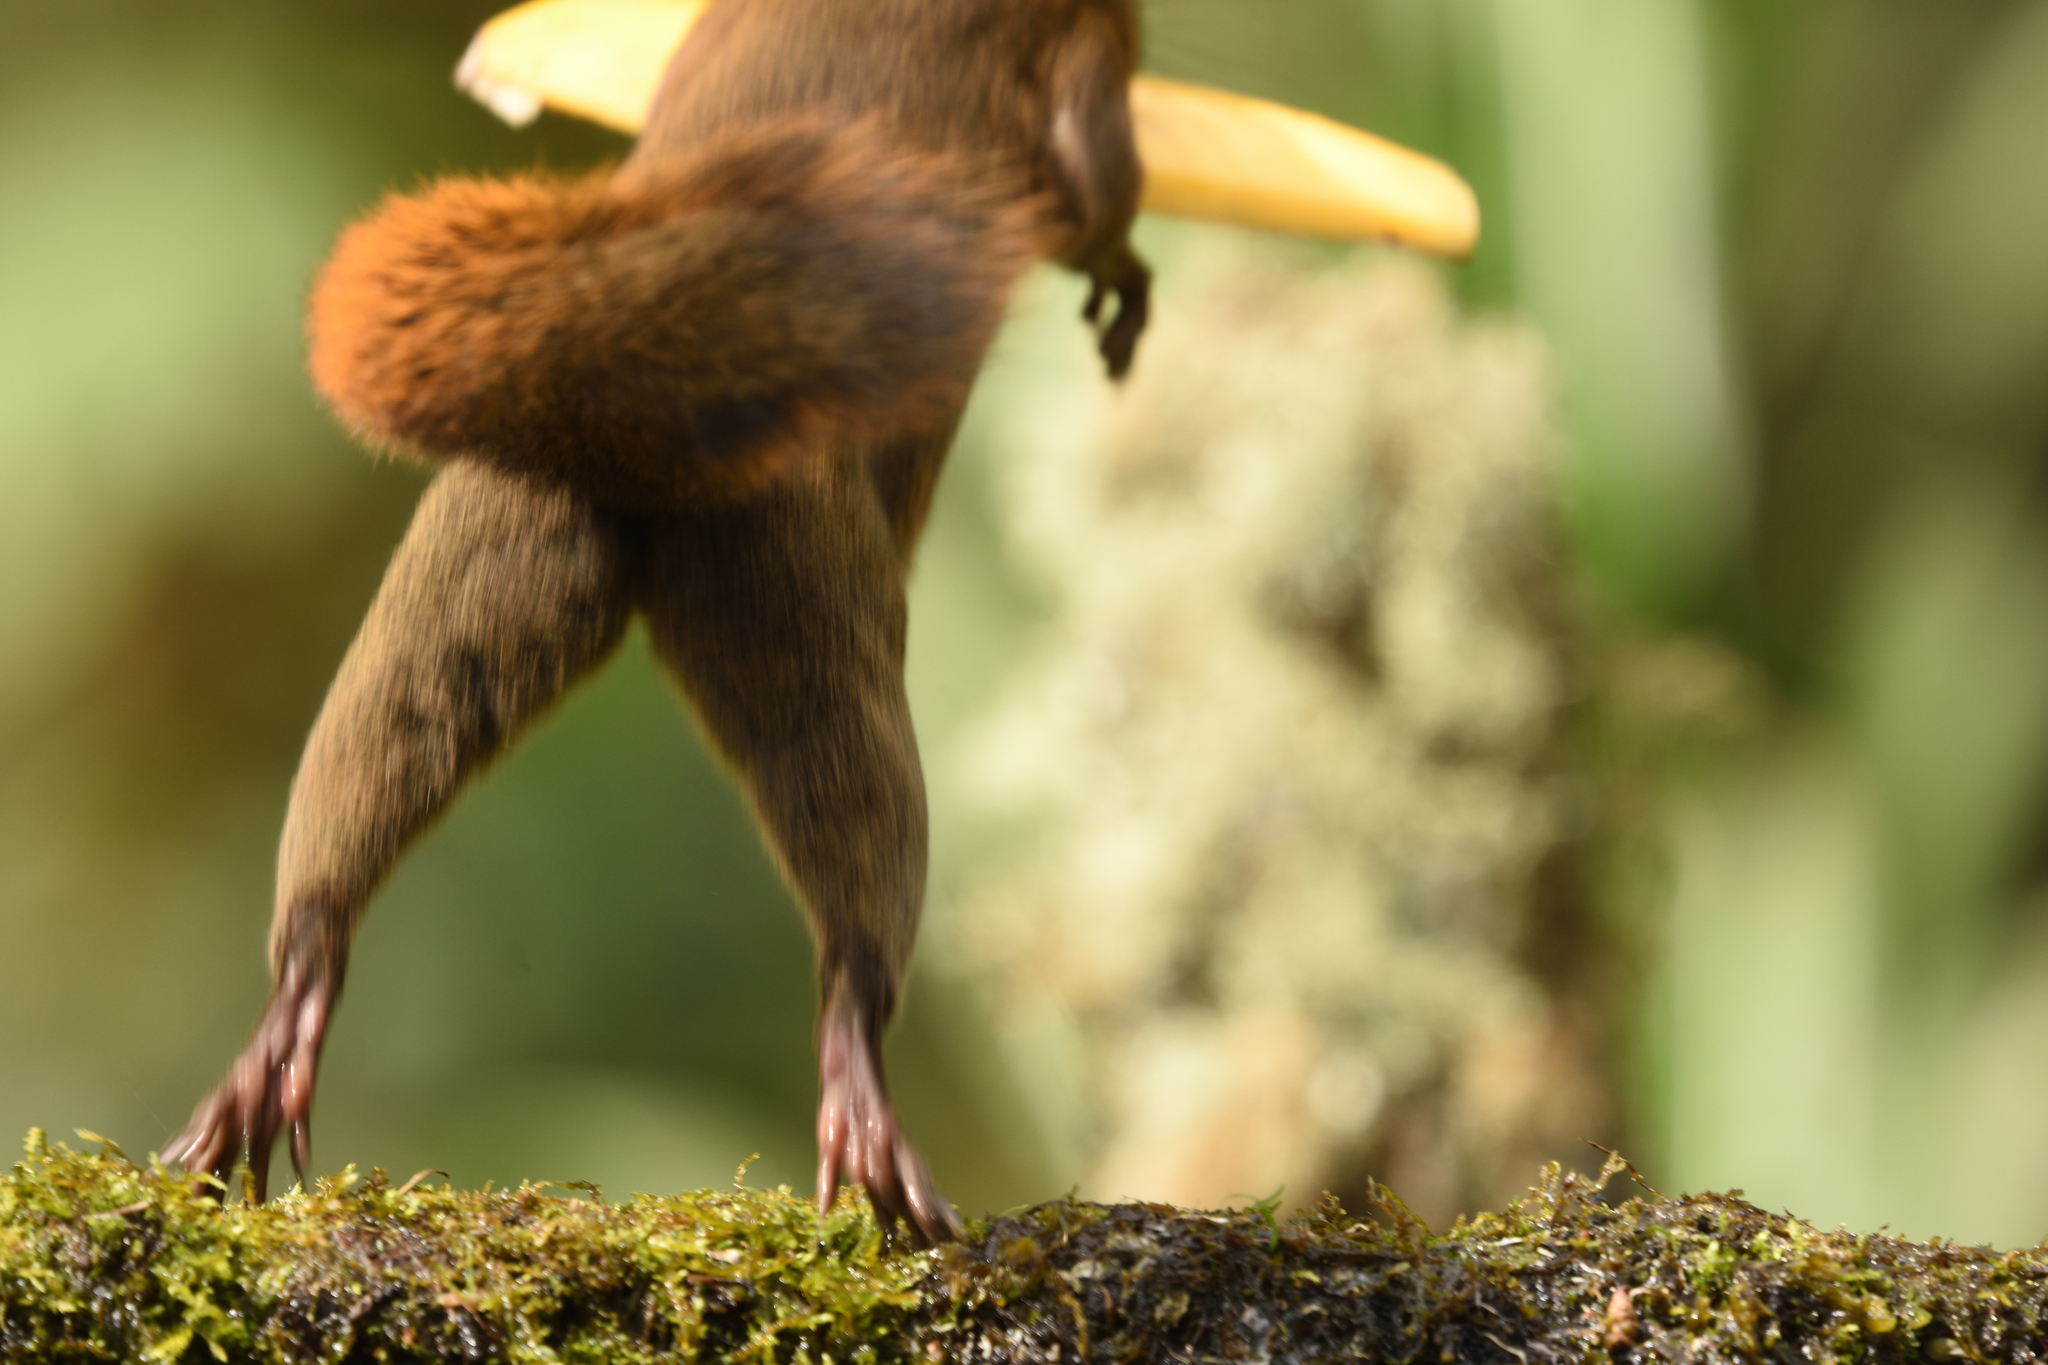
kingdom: Animalia
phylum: Chordata
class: Mammalia
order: Rodentia
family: Sciuridae
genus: Sciurus
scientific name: Sciurus granatensis
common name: Red-tailed squirrel
